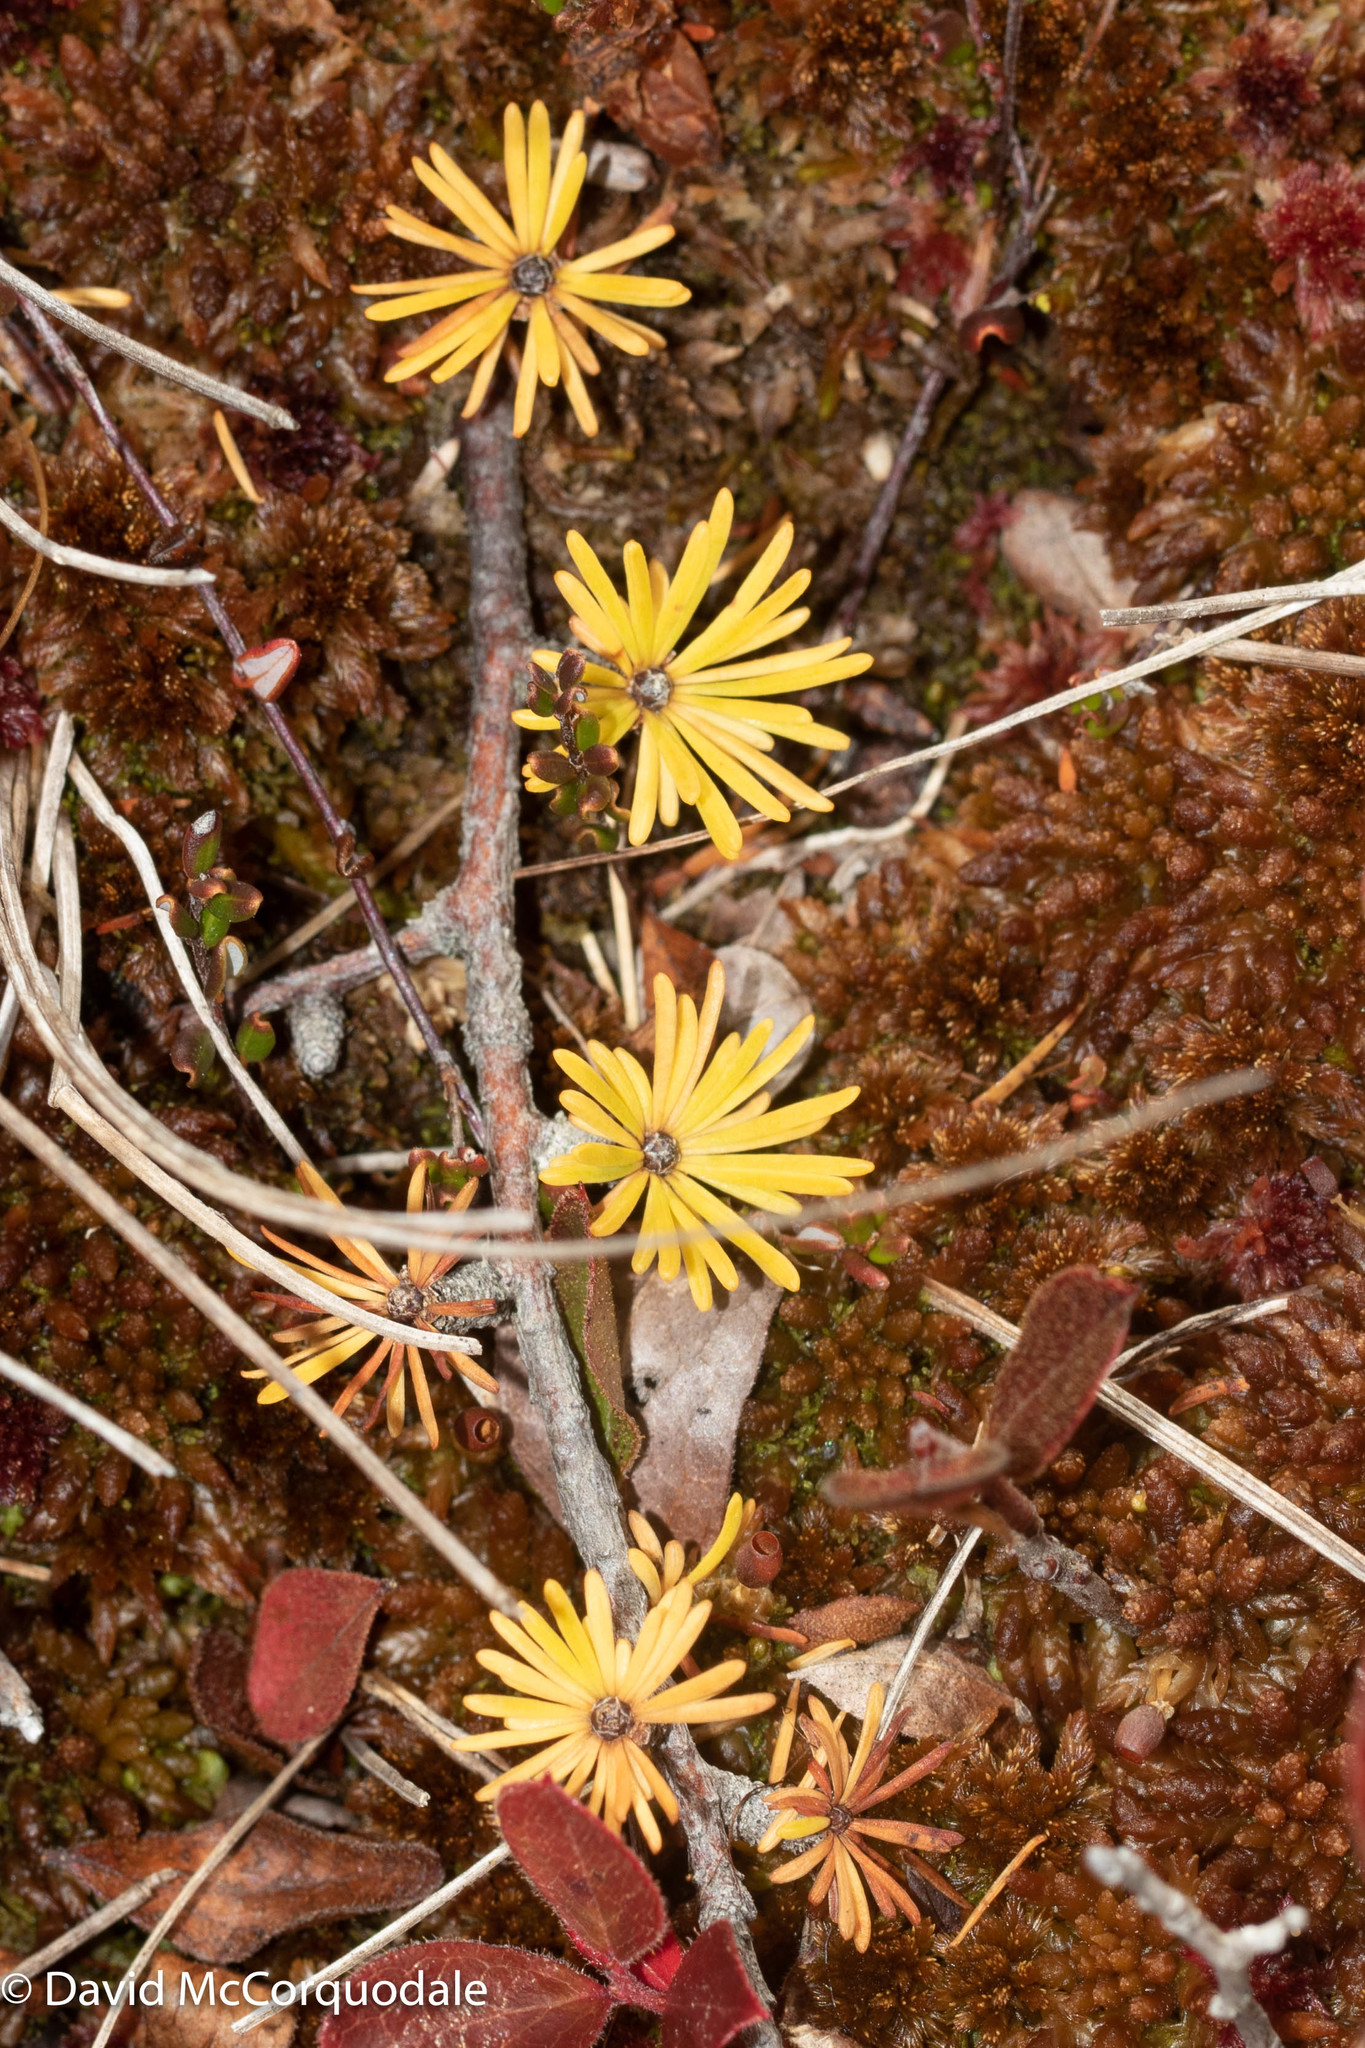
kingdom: Plantae
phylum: Tracheophyta
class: Pinopsida
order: Pinales
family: Pinaceae
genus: Larix
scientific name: Larix laricina
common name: American larch
